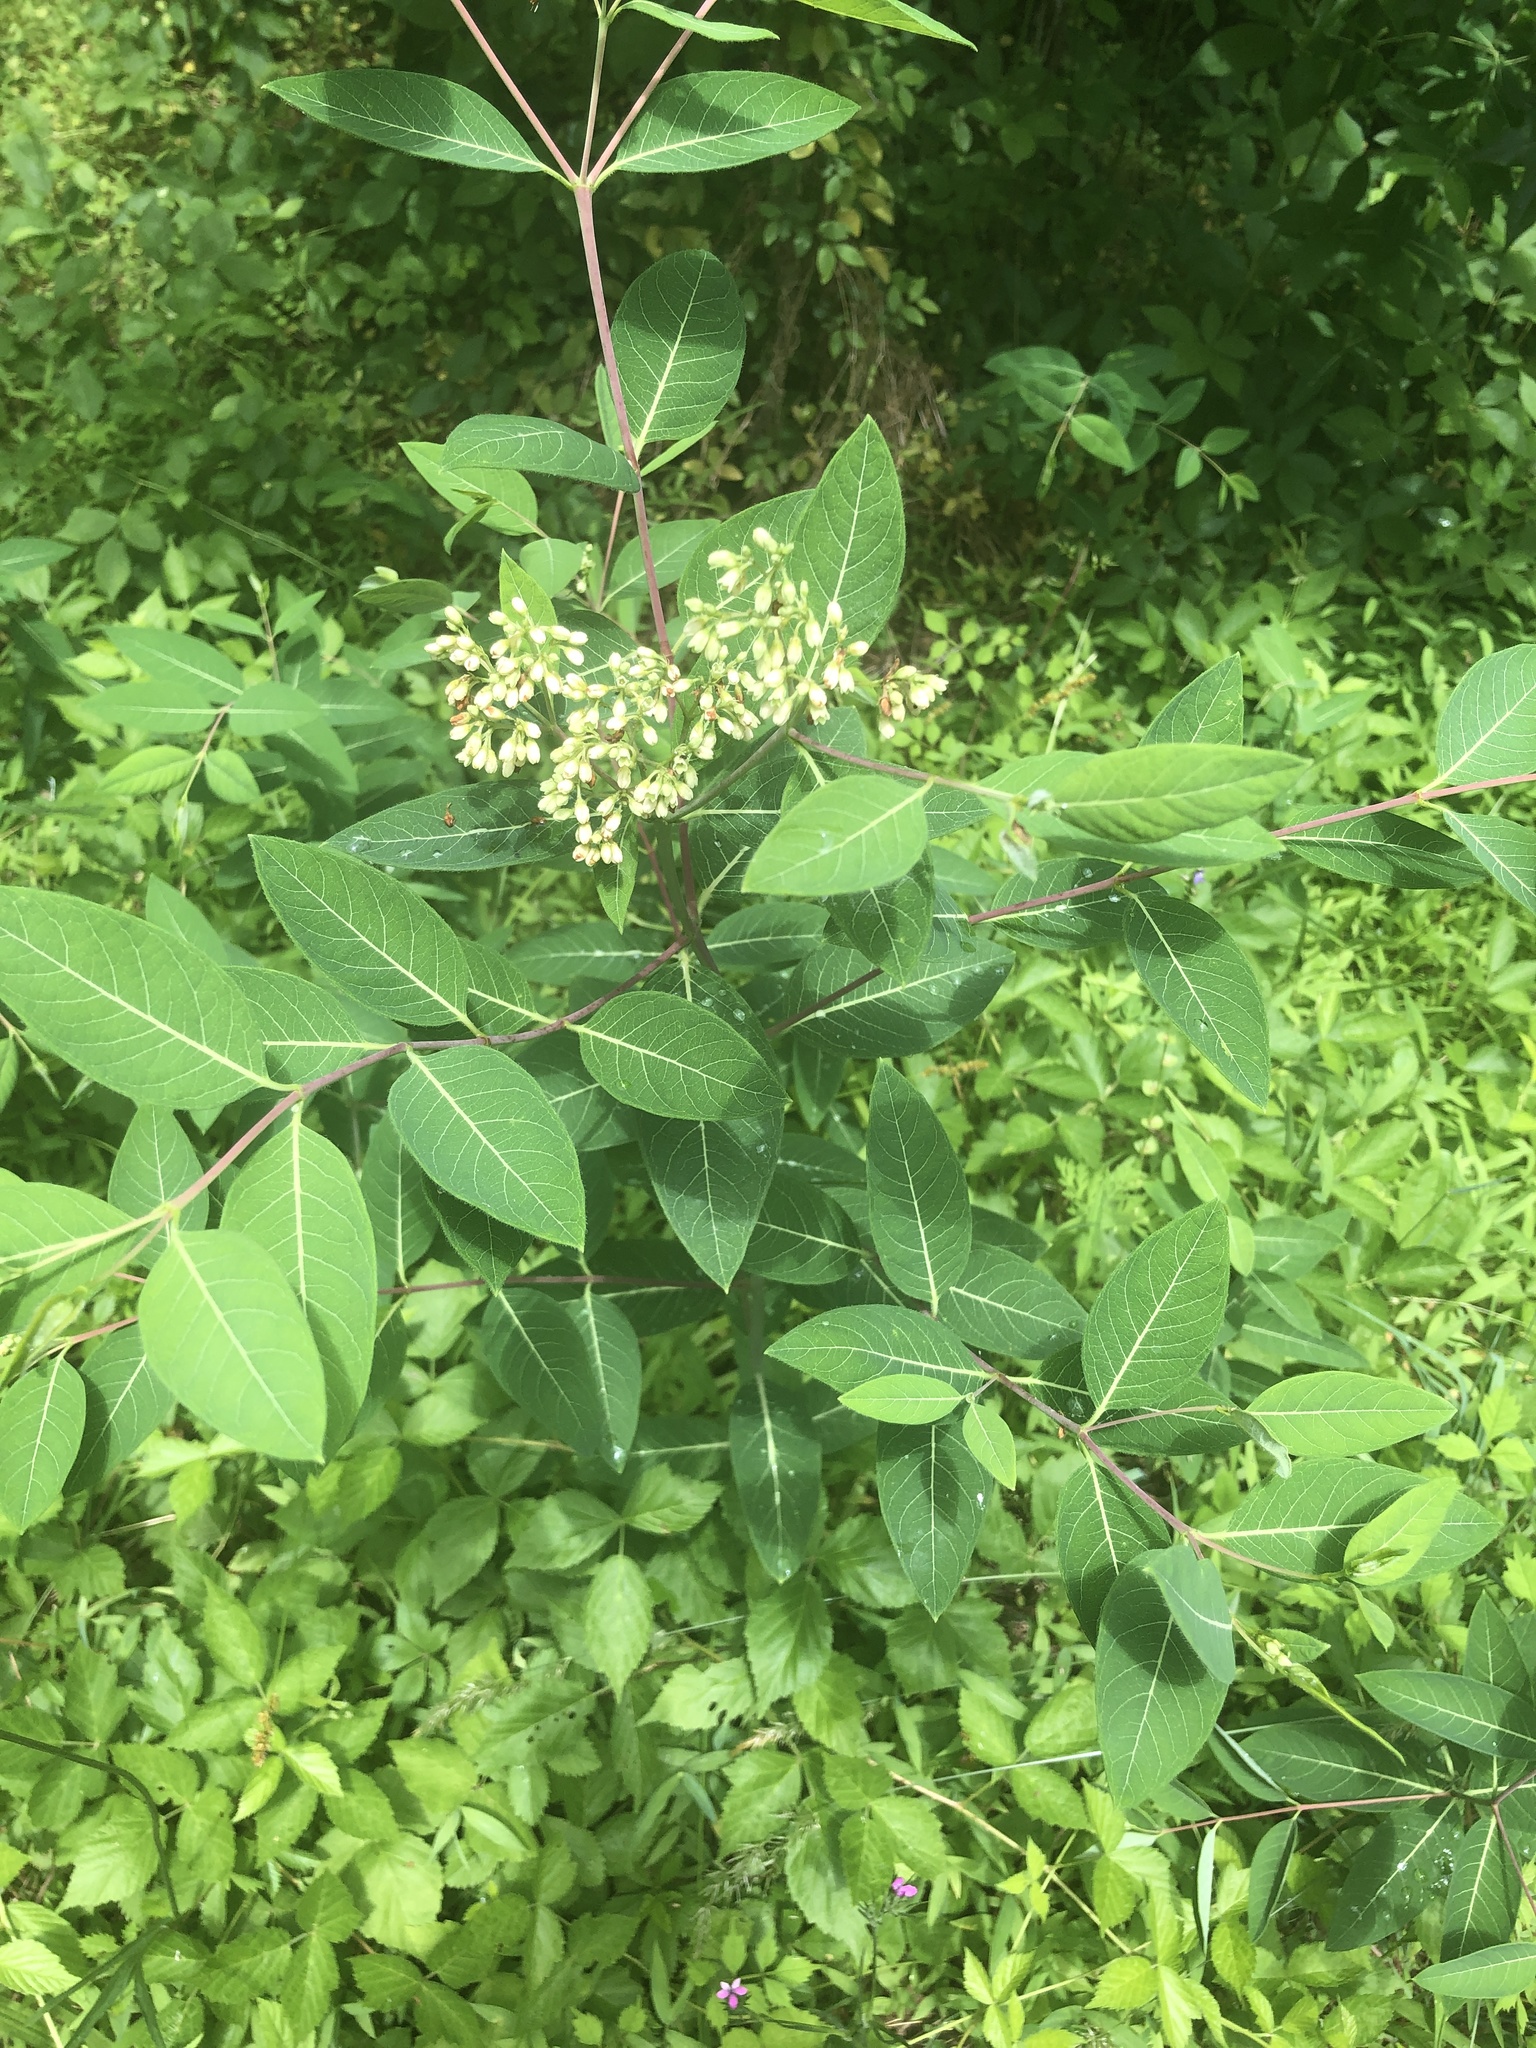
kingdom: Plantae
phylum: Tracheophyta
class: Magnoliopsida
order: Gentianales
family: Apocynaceae
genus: Apocynum
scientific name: Apocynum cannabinum
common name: Hemp dogbane
